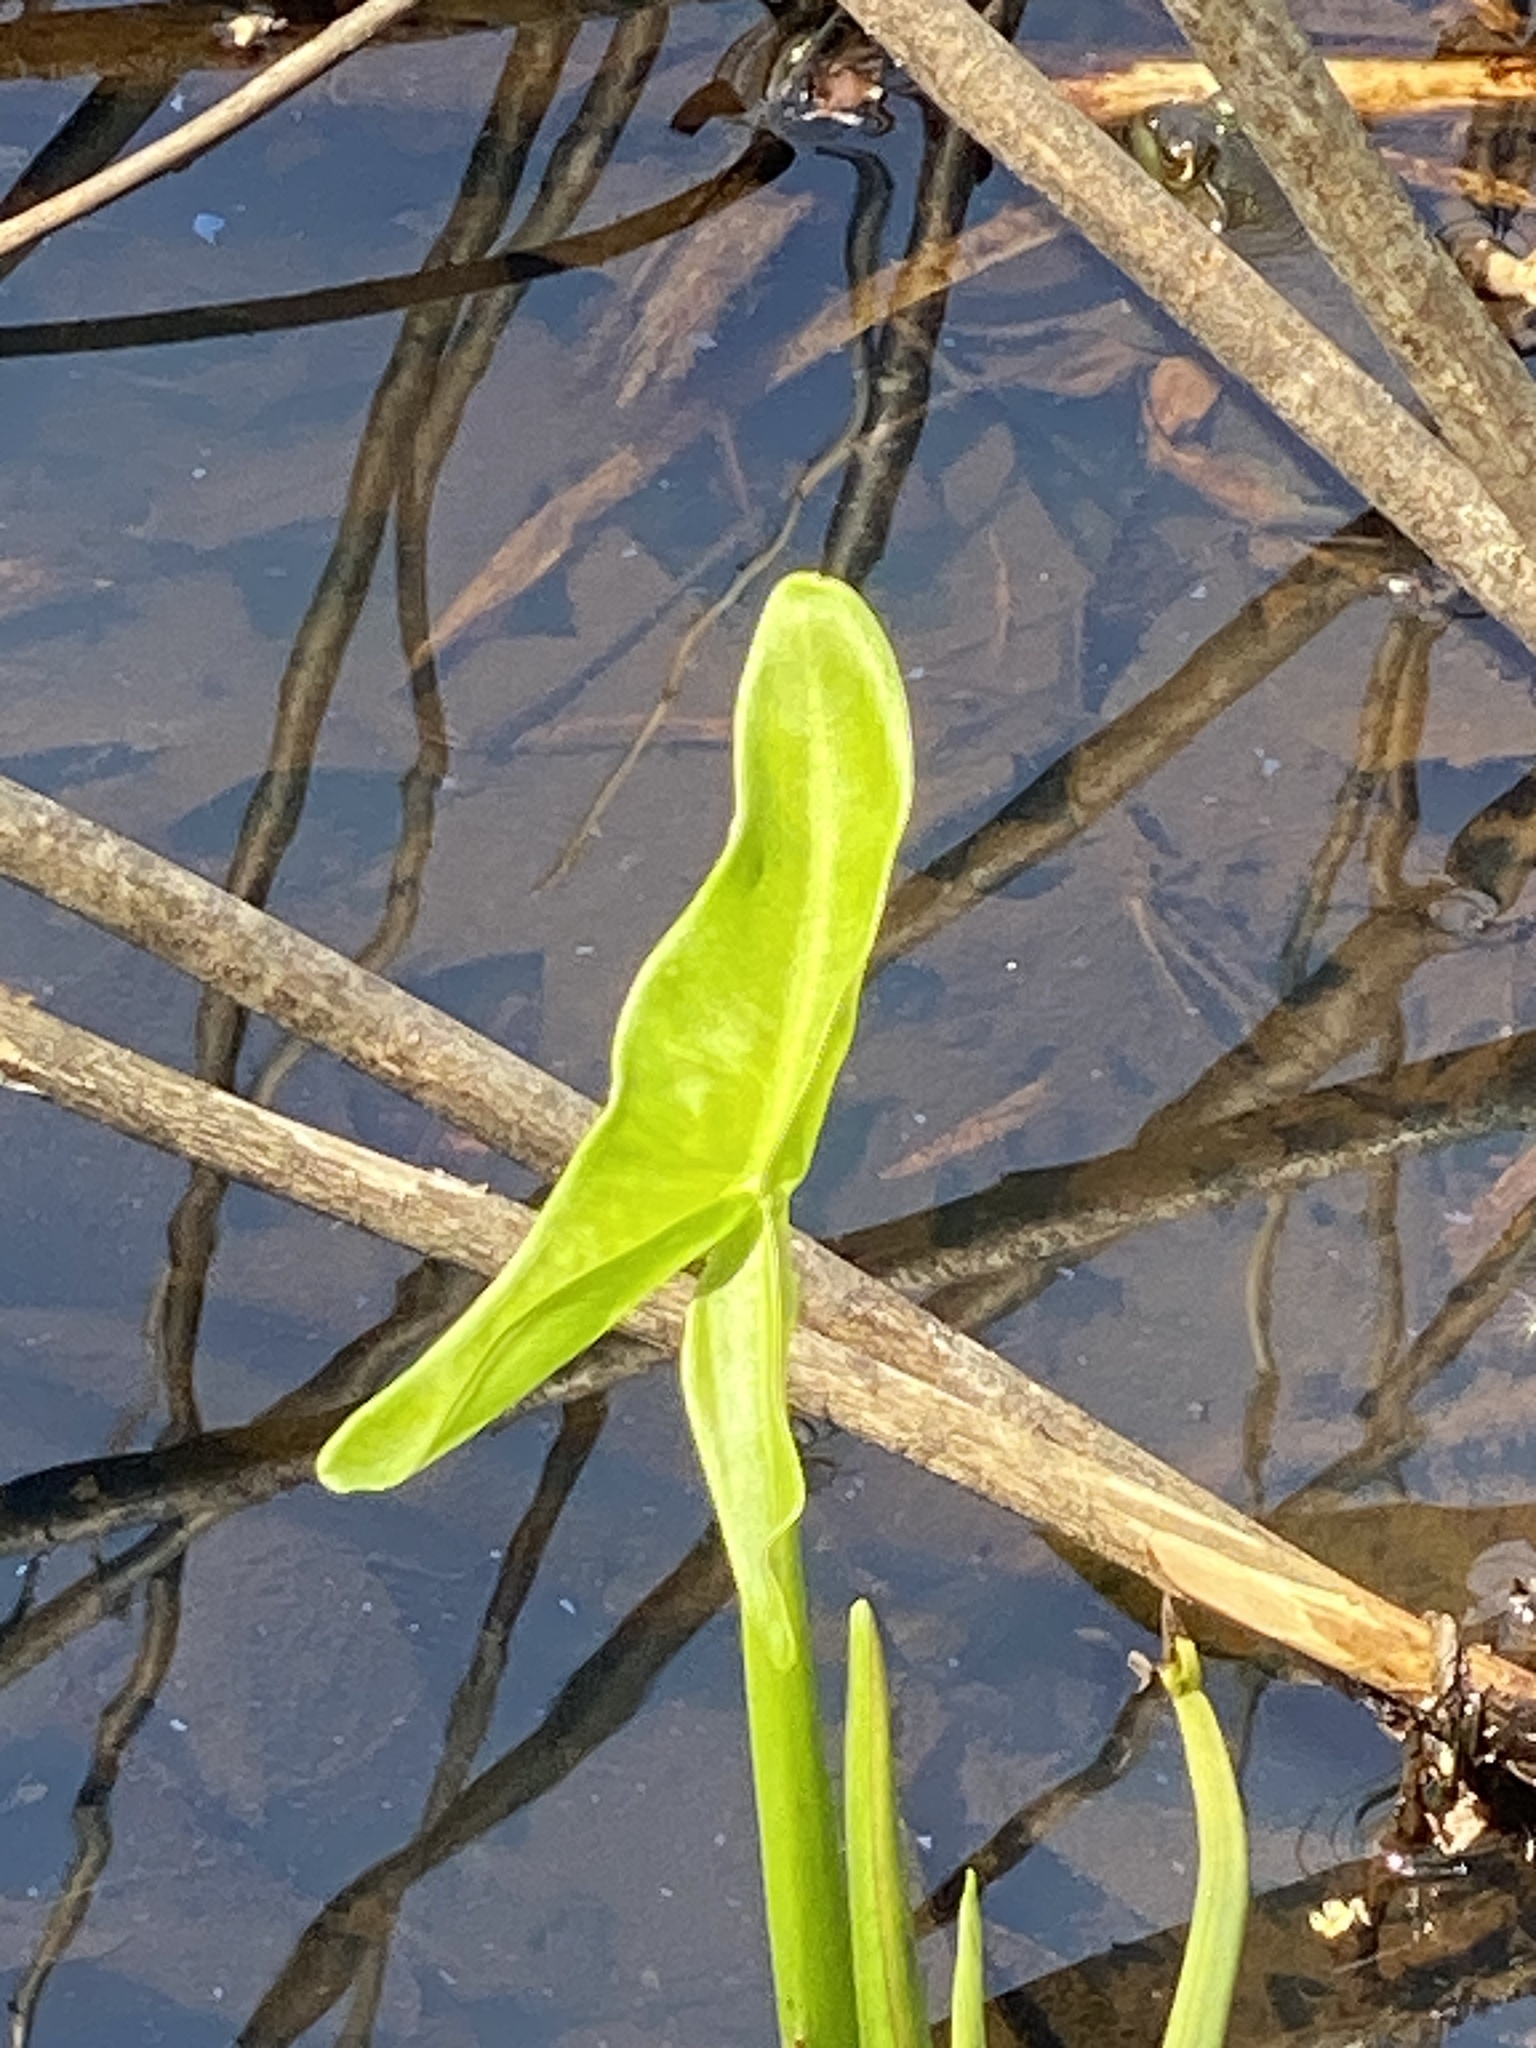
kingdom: Plantae
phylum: Tracheophyta
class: Liliopsida
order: Alismatales
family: Araceae
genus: Peltandra
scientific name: Peltandra virginica
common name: Arrow arum
